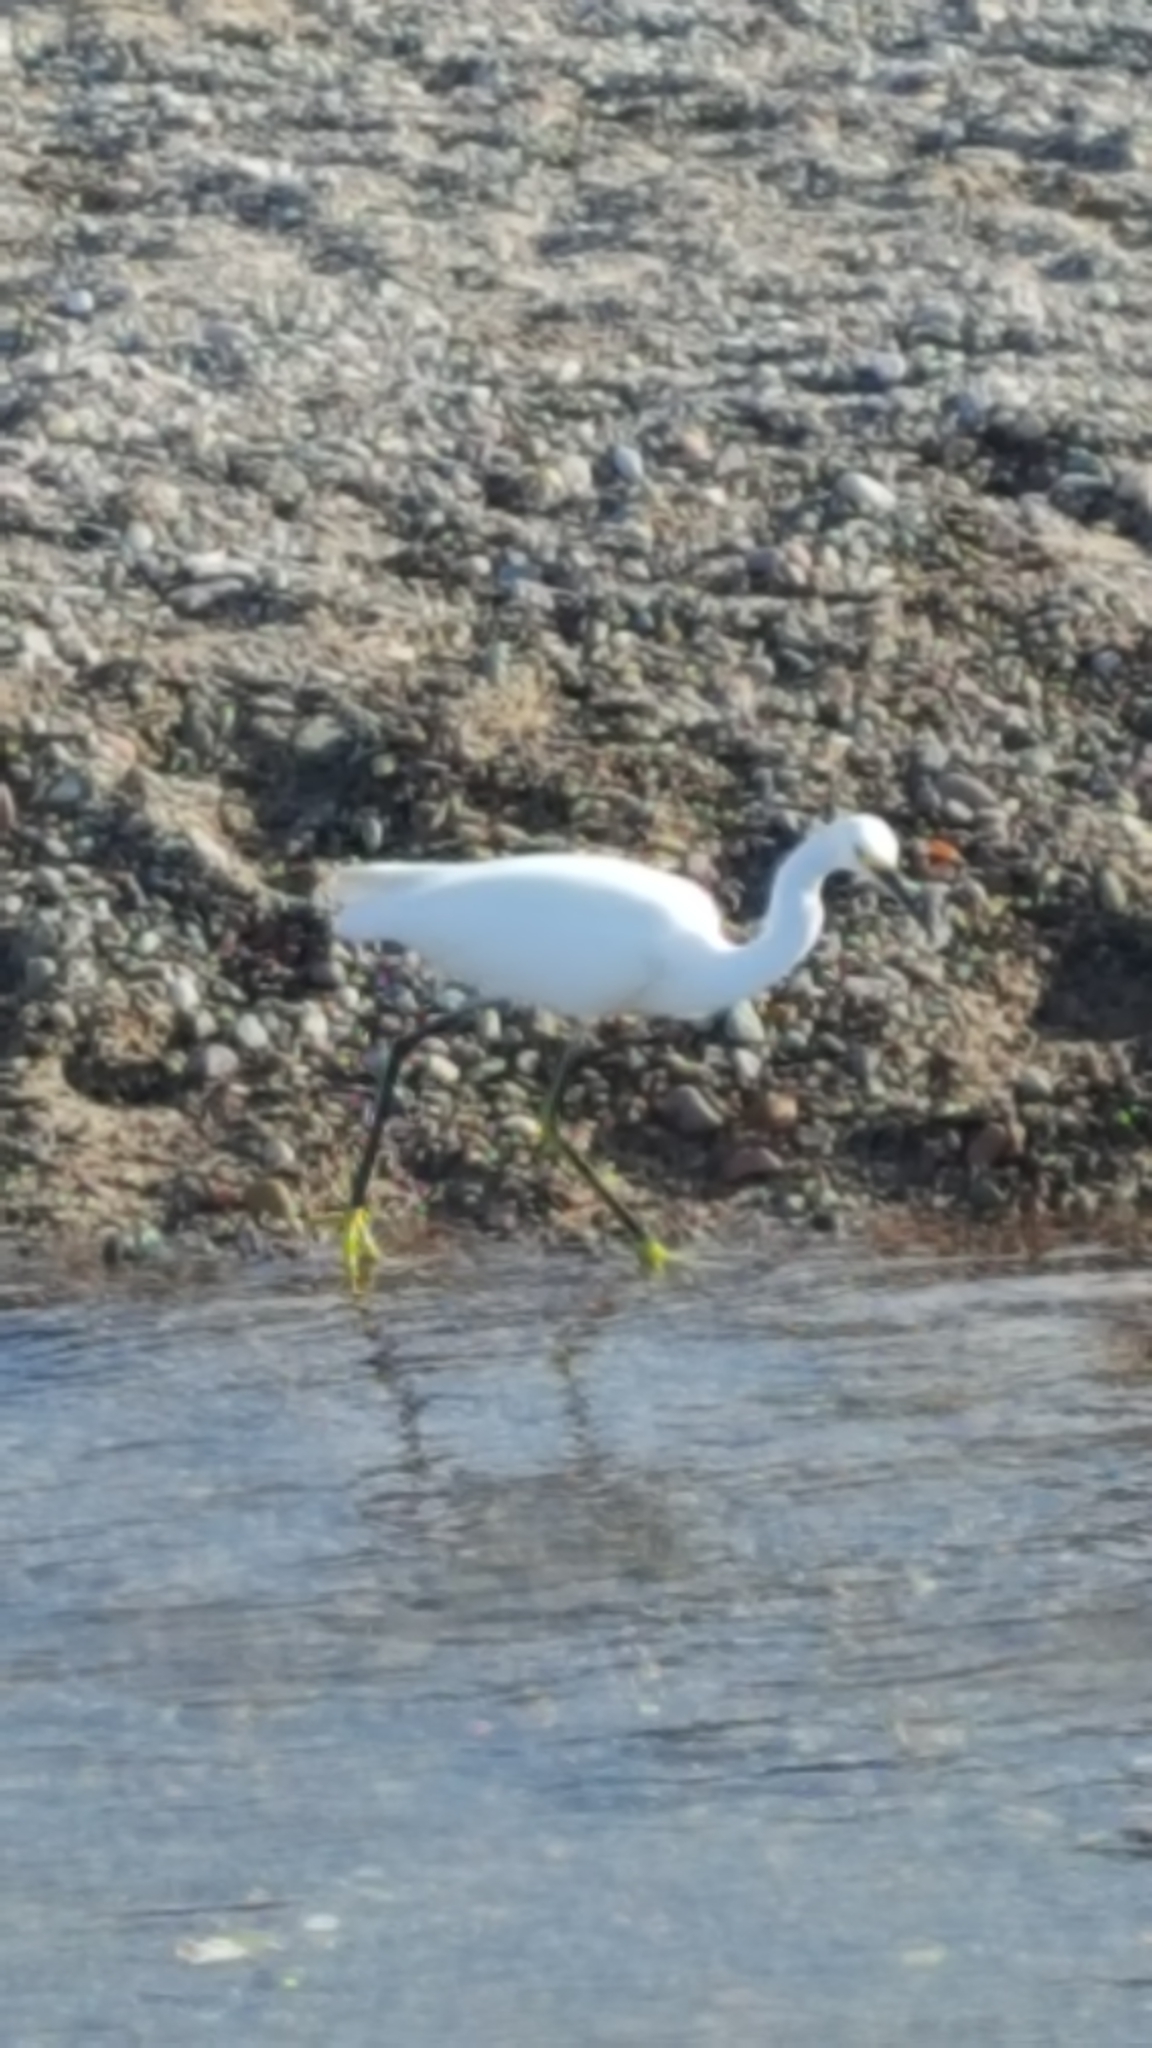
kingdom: Animalia
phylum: Chordata
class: Aves
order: Pelecaniformes
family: Ardeidae
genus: Egretta
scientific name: Egretta thula
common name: Snowy egret
